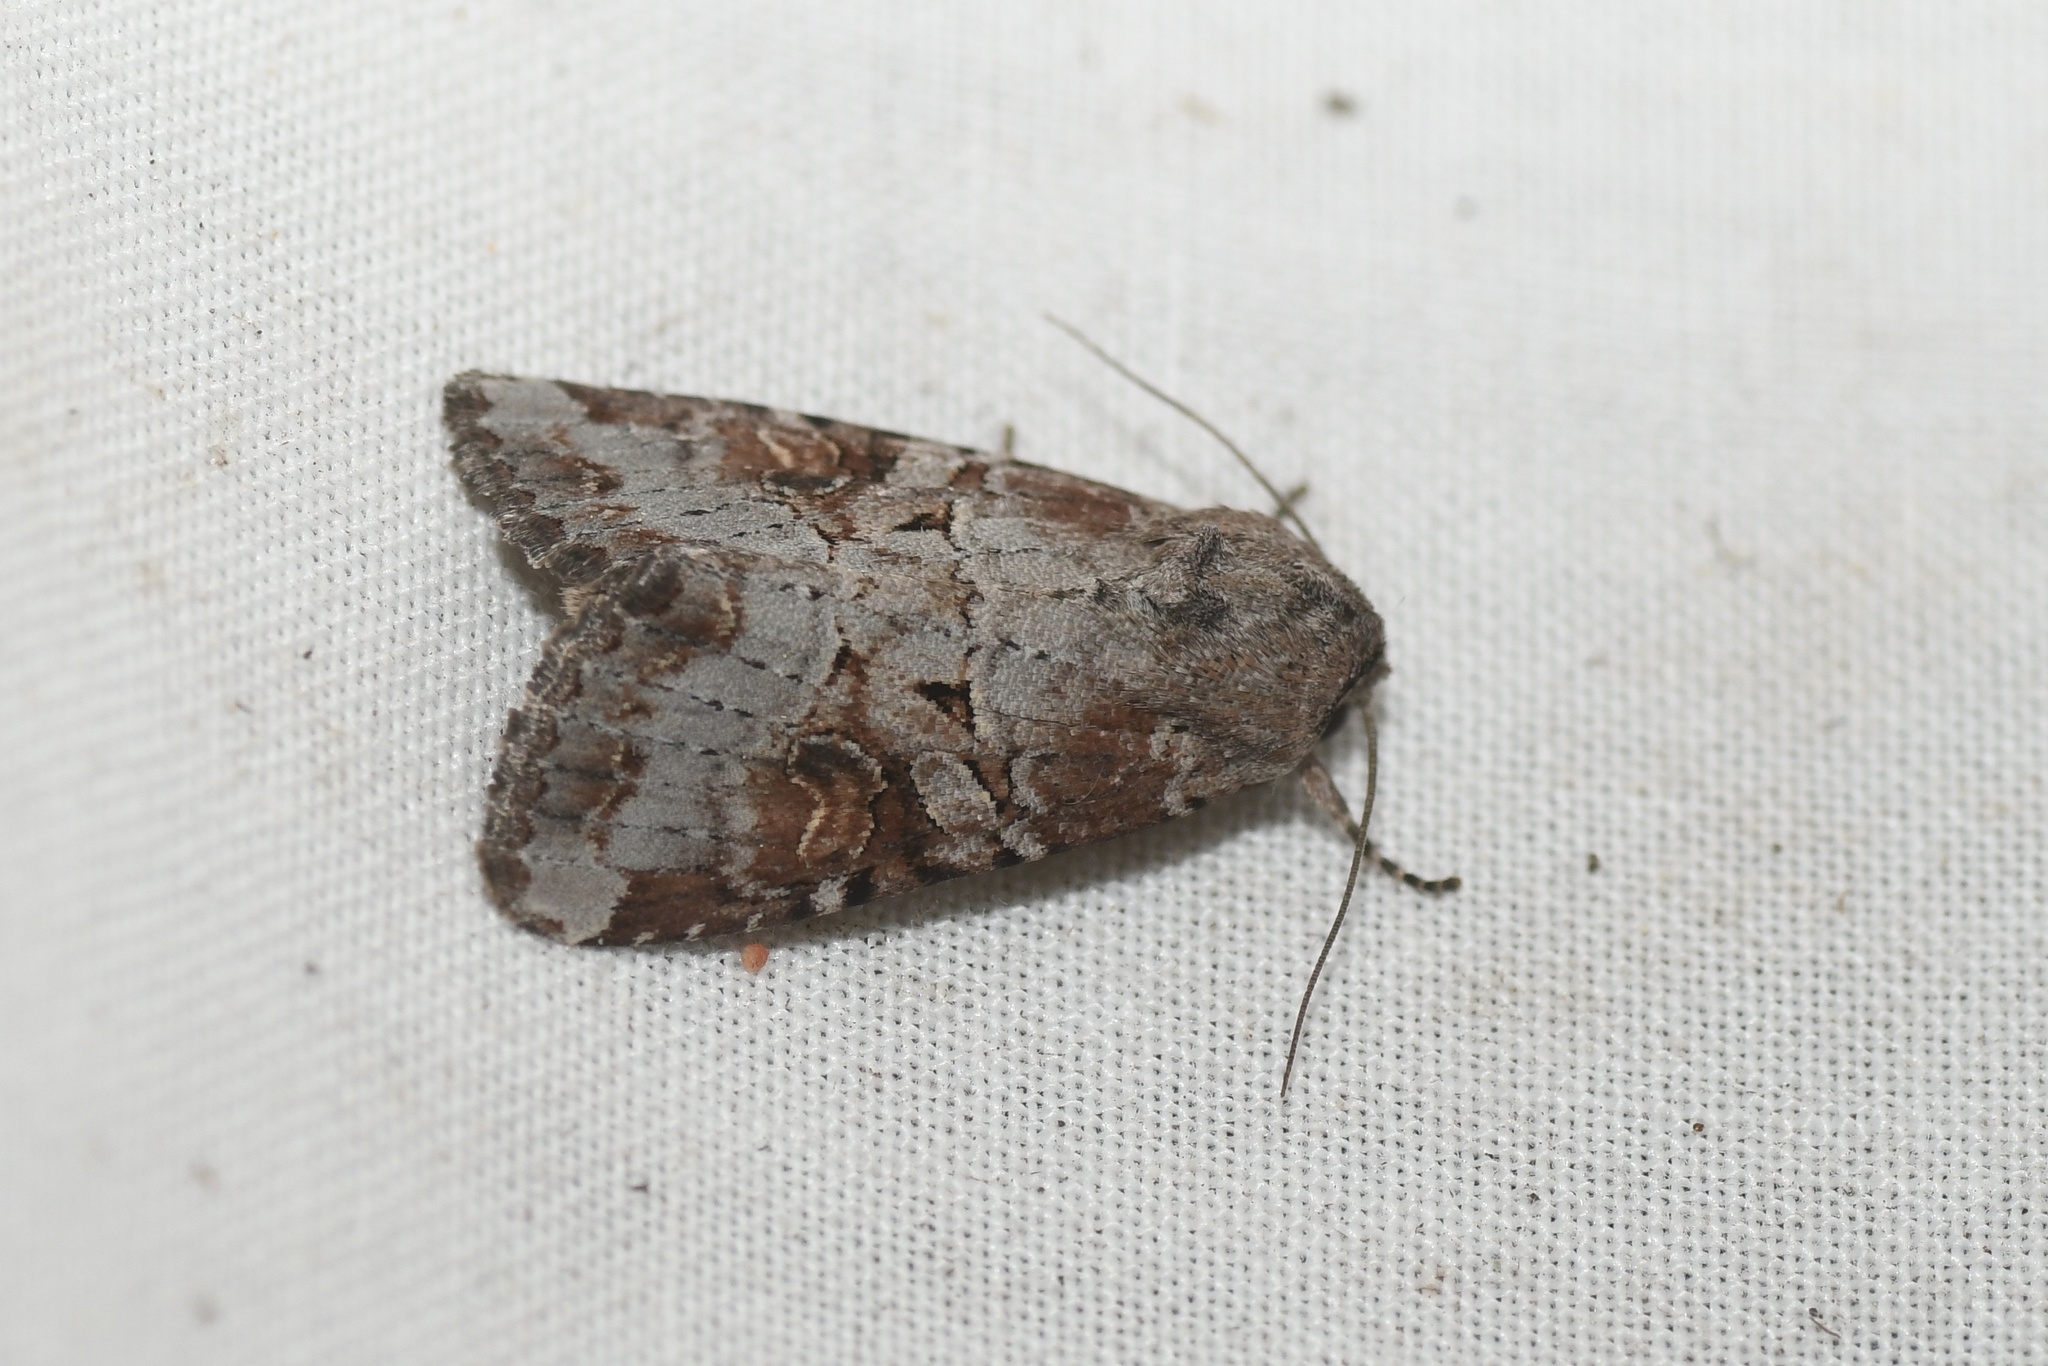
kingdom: Animalia
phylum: Arthropoda
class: Insecta
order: Lepidoptera
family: Noctuidae
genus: Trichordestra
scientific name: Trichordestra legitima
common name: Striped garden caterpillar
